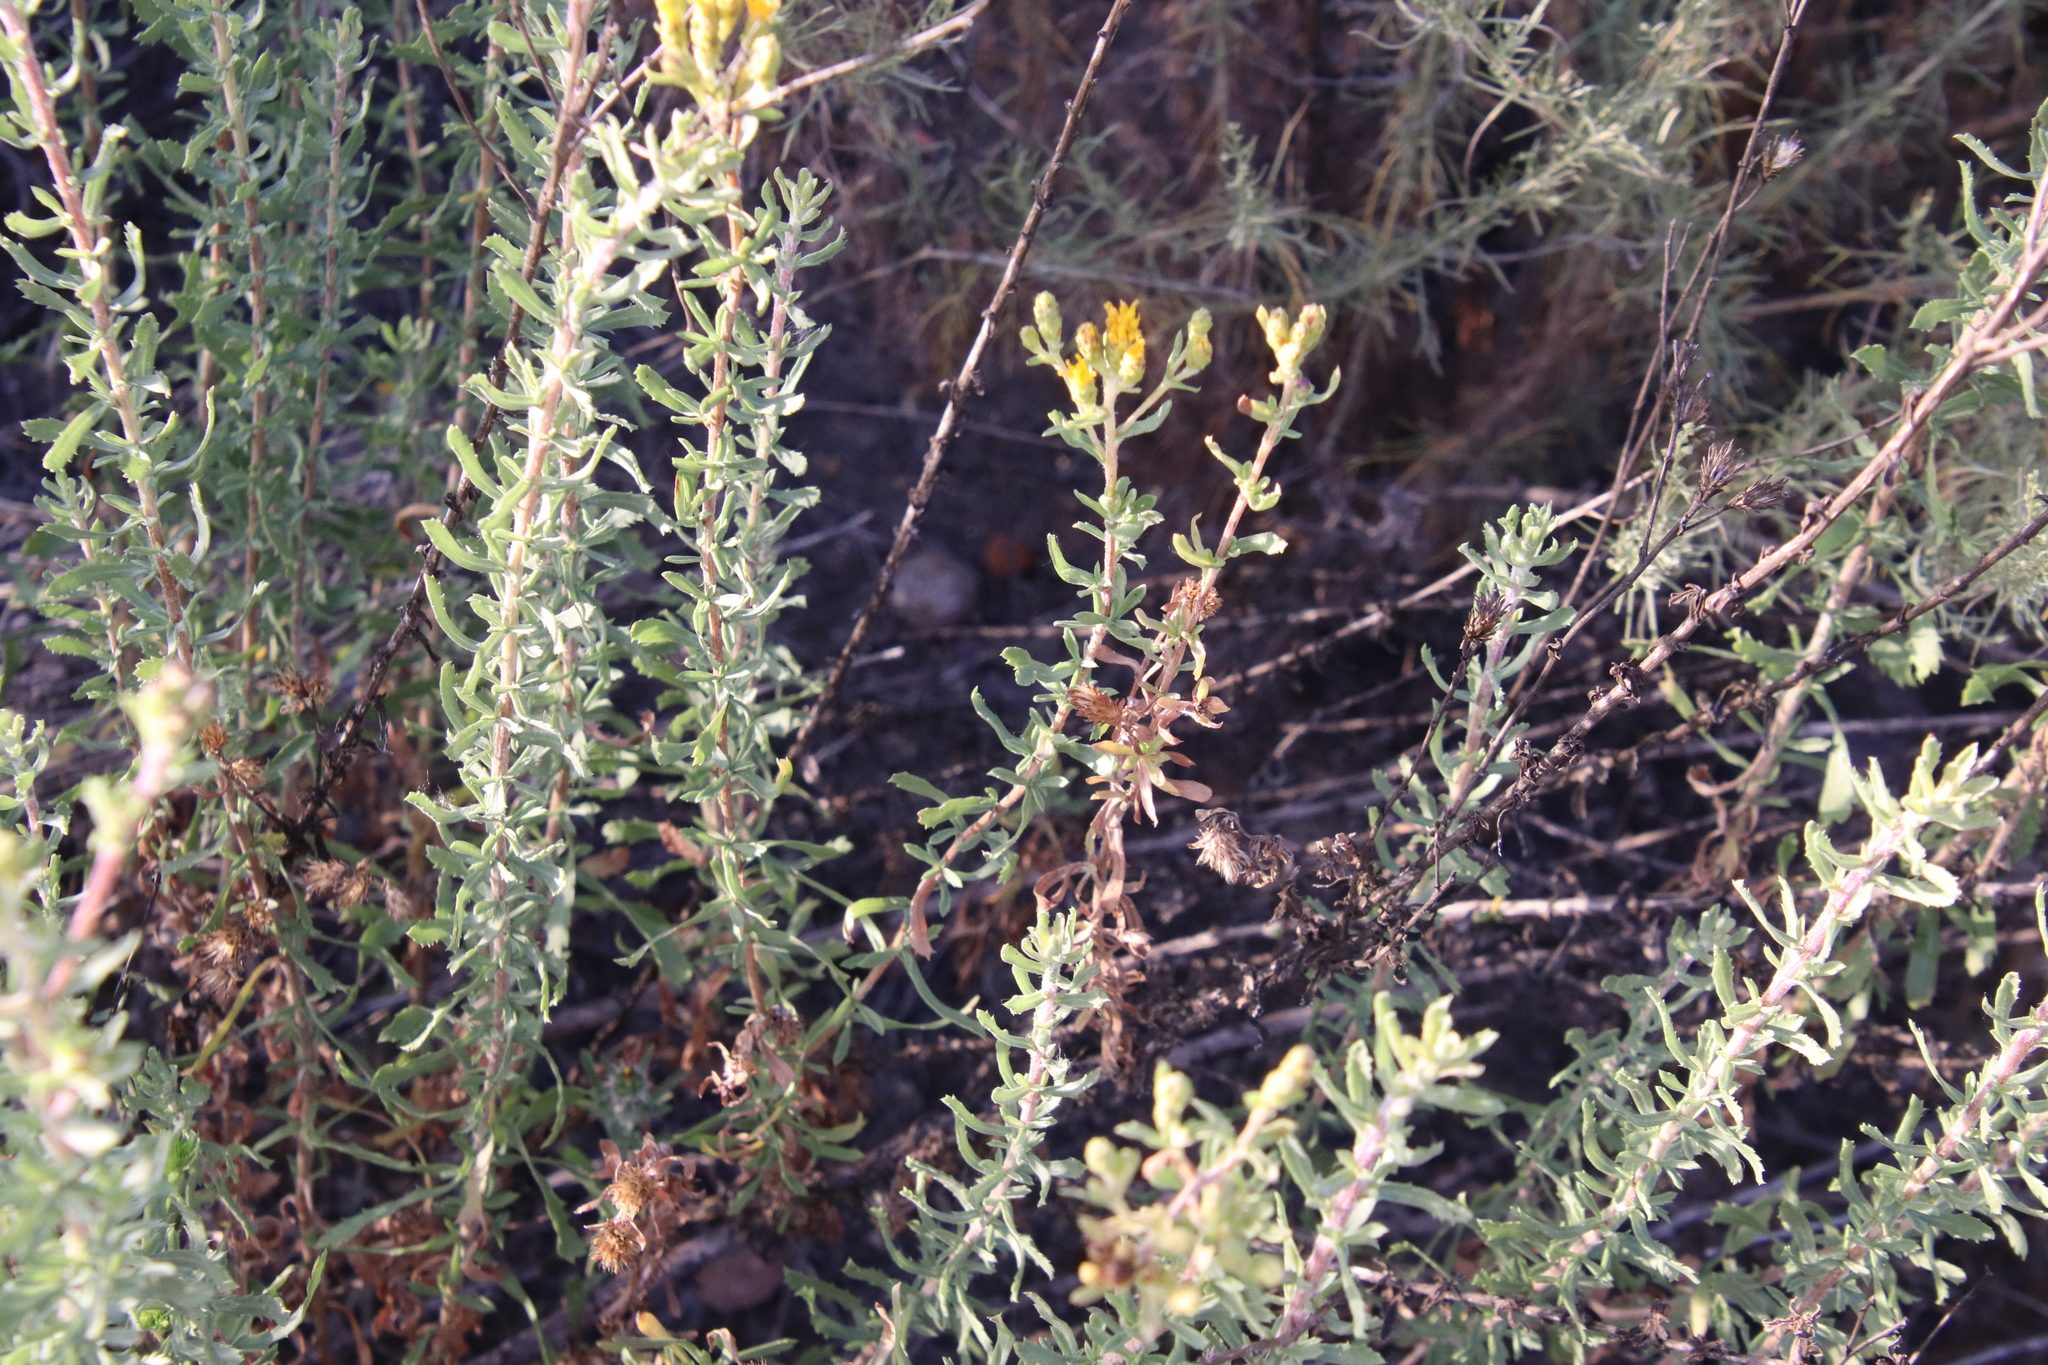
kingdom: Plantae
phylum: Tracheophyta
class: Magnoliopsida
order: Asterales
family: Asteraceae
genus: Isocoma
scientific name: Isocoma menziesii
